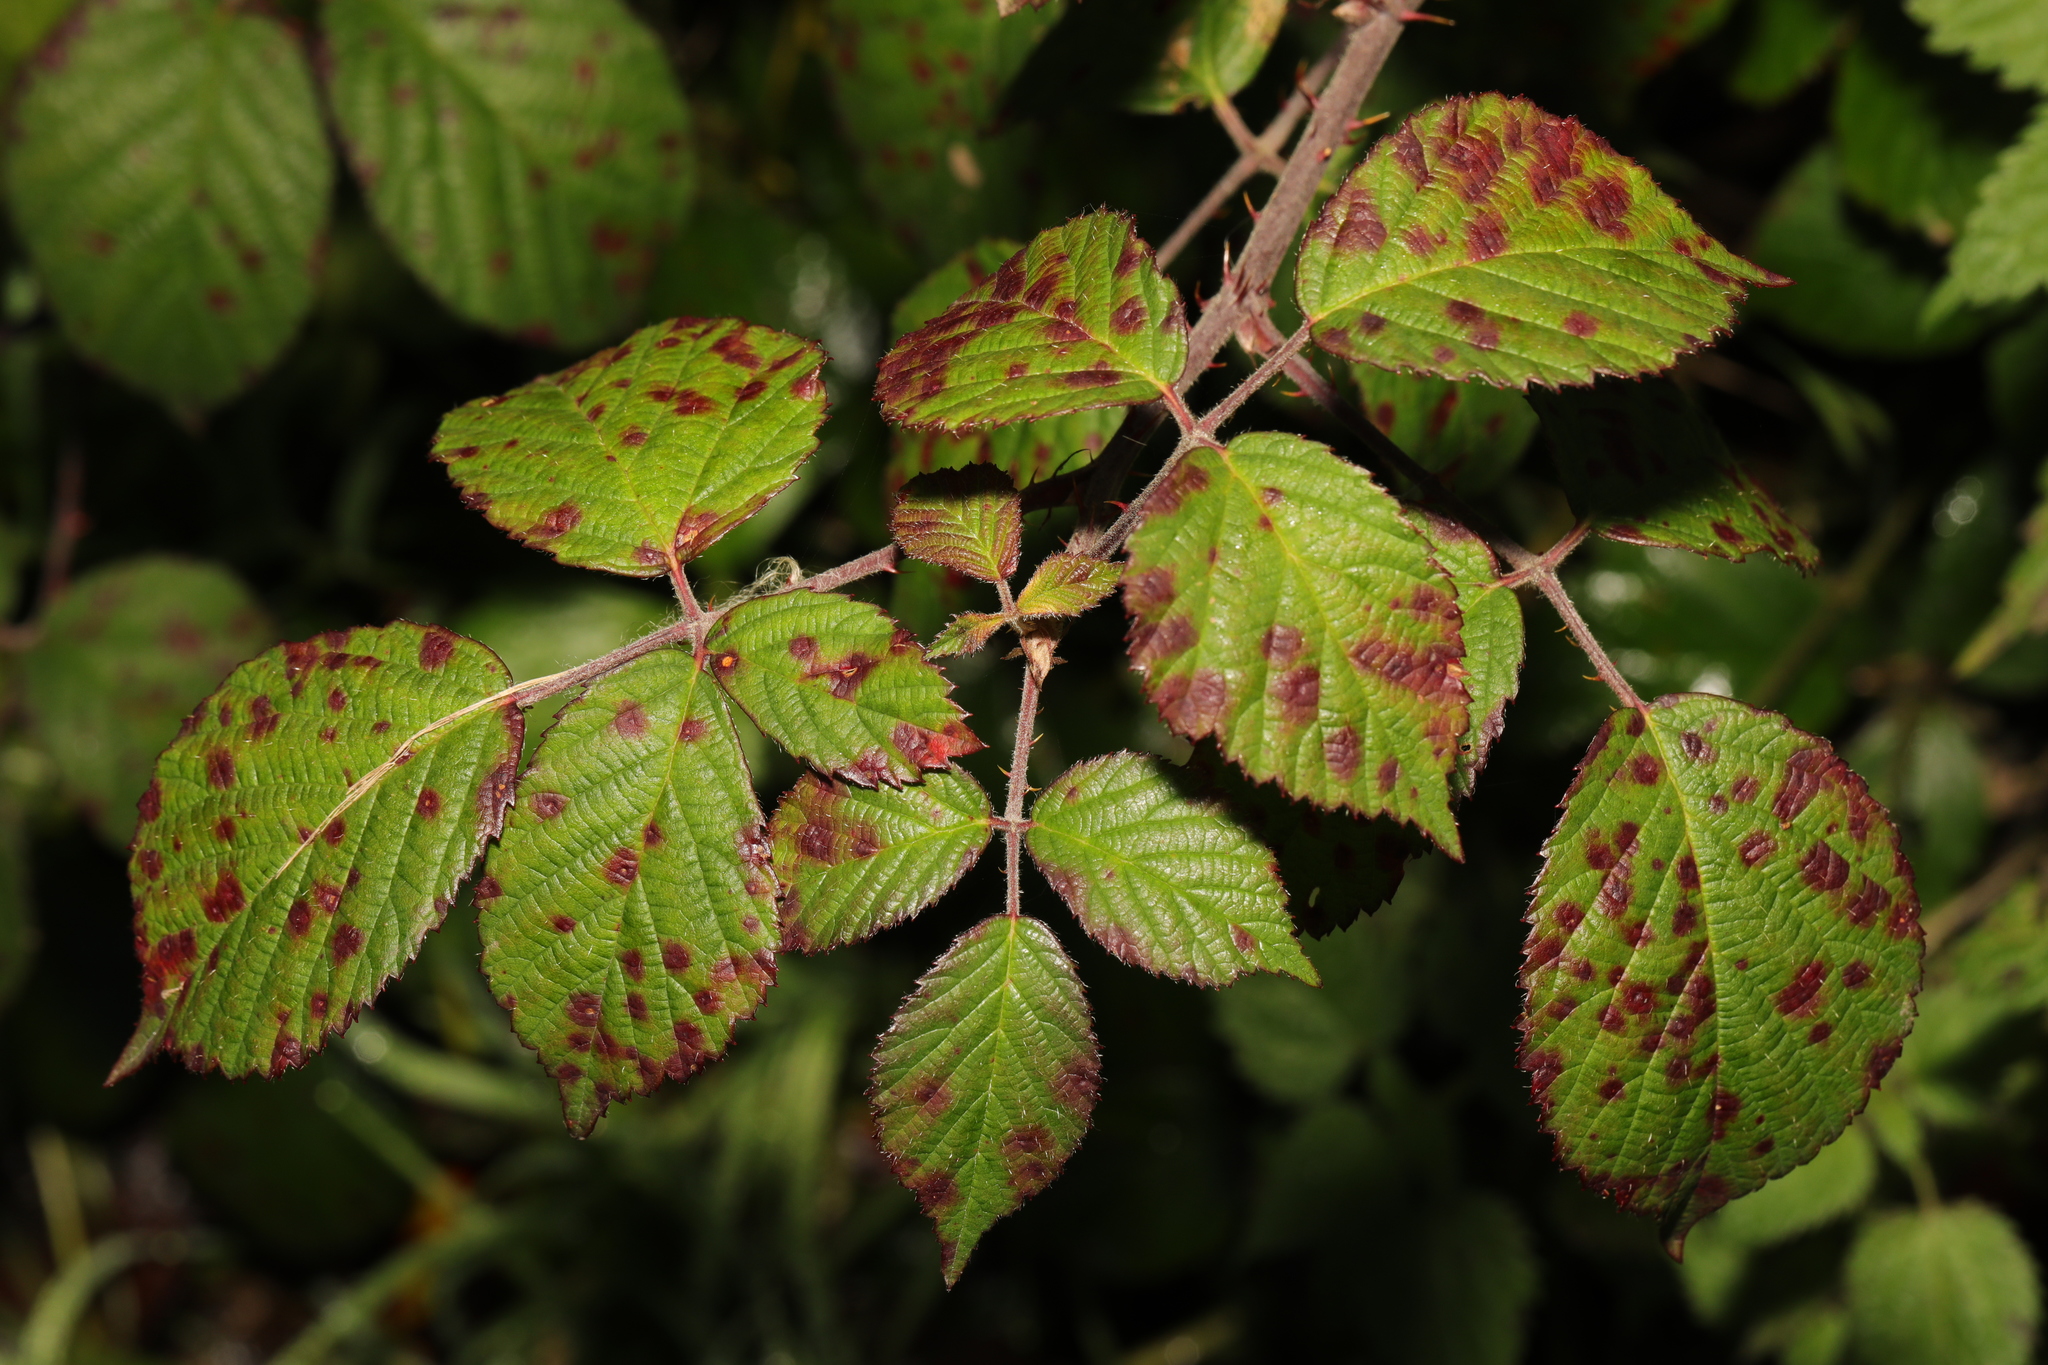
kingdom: Fungi
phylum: Basidiomycota
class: Pucciniomycetes
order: Pucciniales
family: Phragmidiaceae
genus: Phragmidium
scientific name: Phragmidium violaceum
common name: Violet bramble rust
